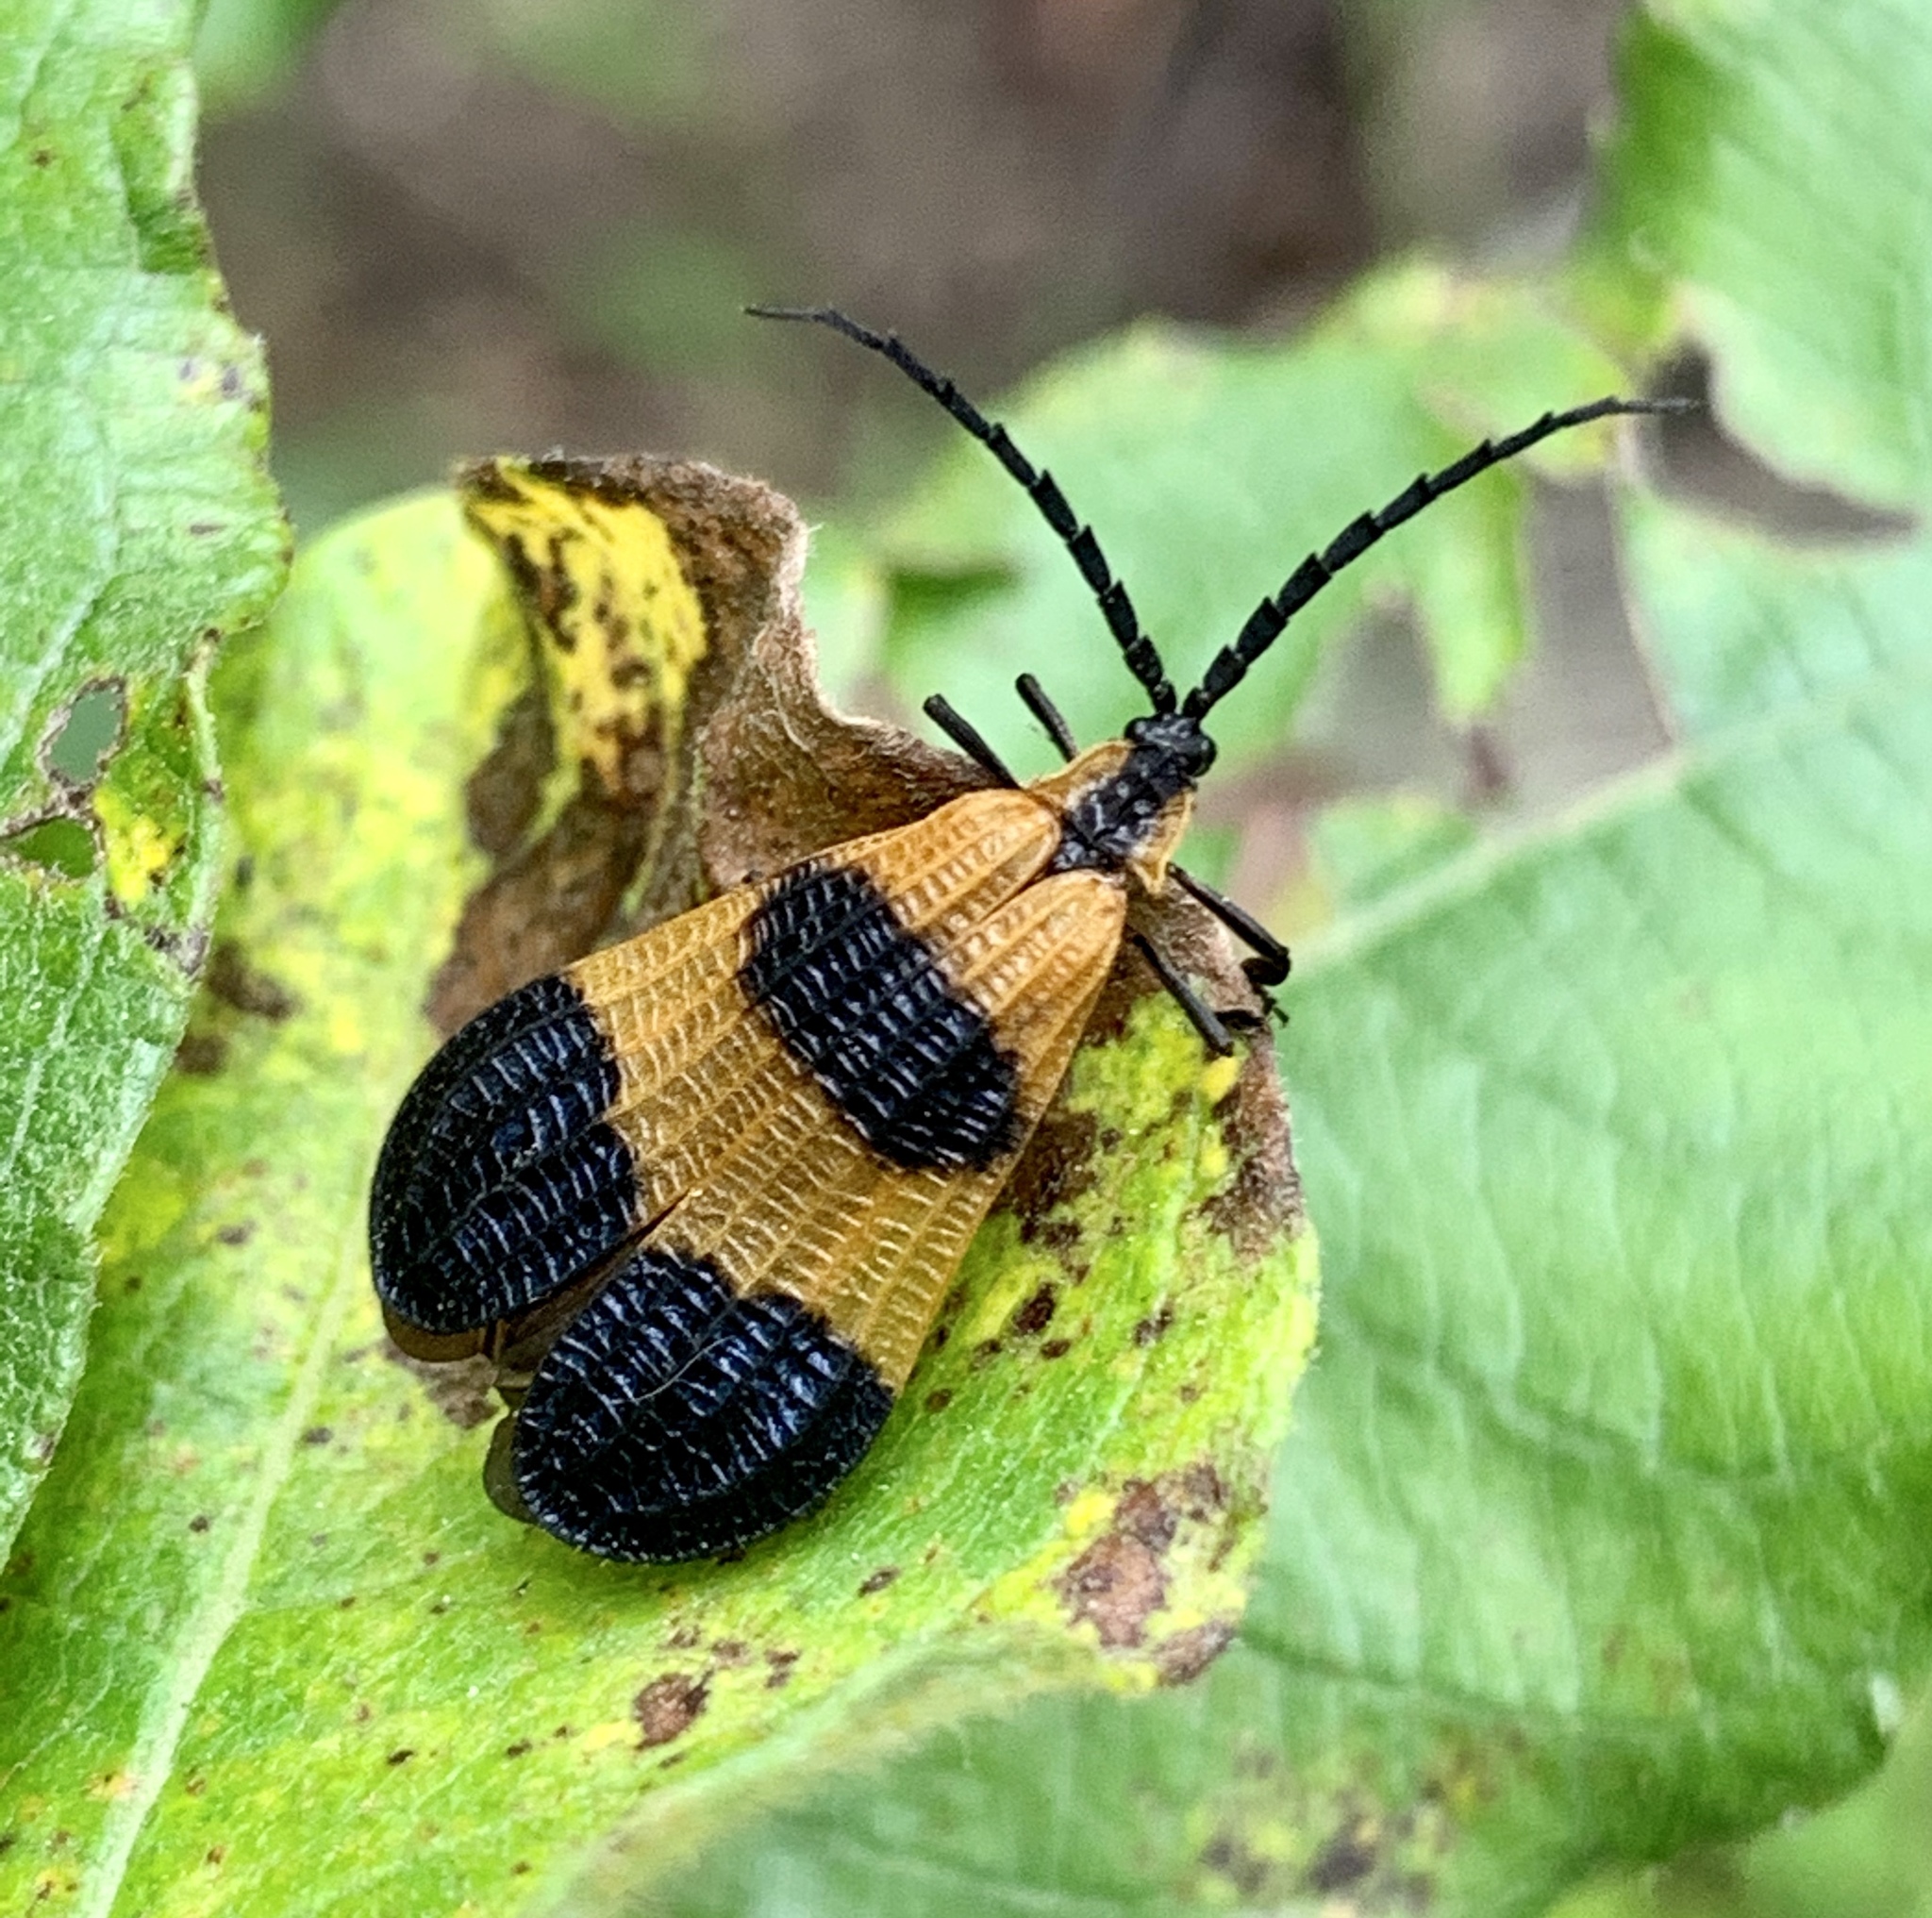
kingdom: Animalia
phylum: Arthropoda
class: Insecta
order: Coleoptera
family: Lycidae
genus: Calopteron
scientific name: Calopteron terminale
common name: End band net-winged beetle
